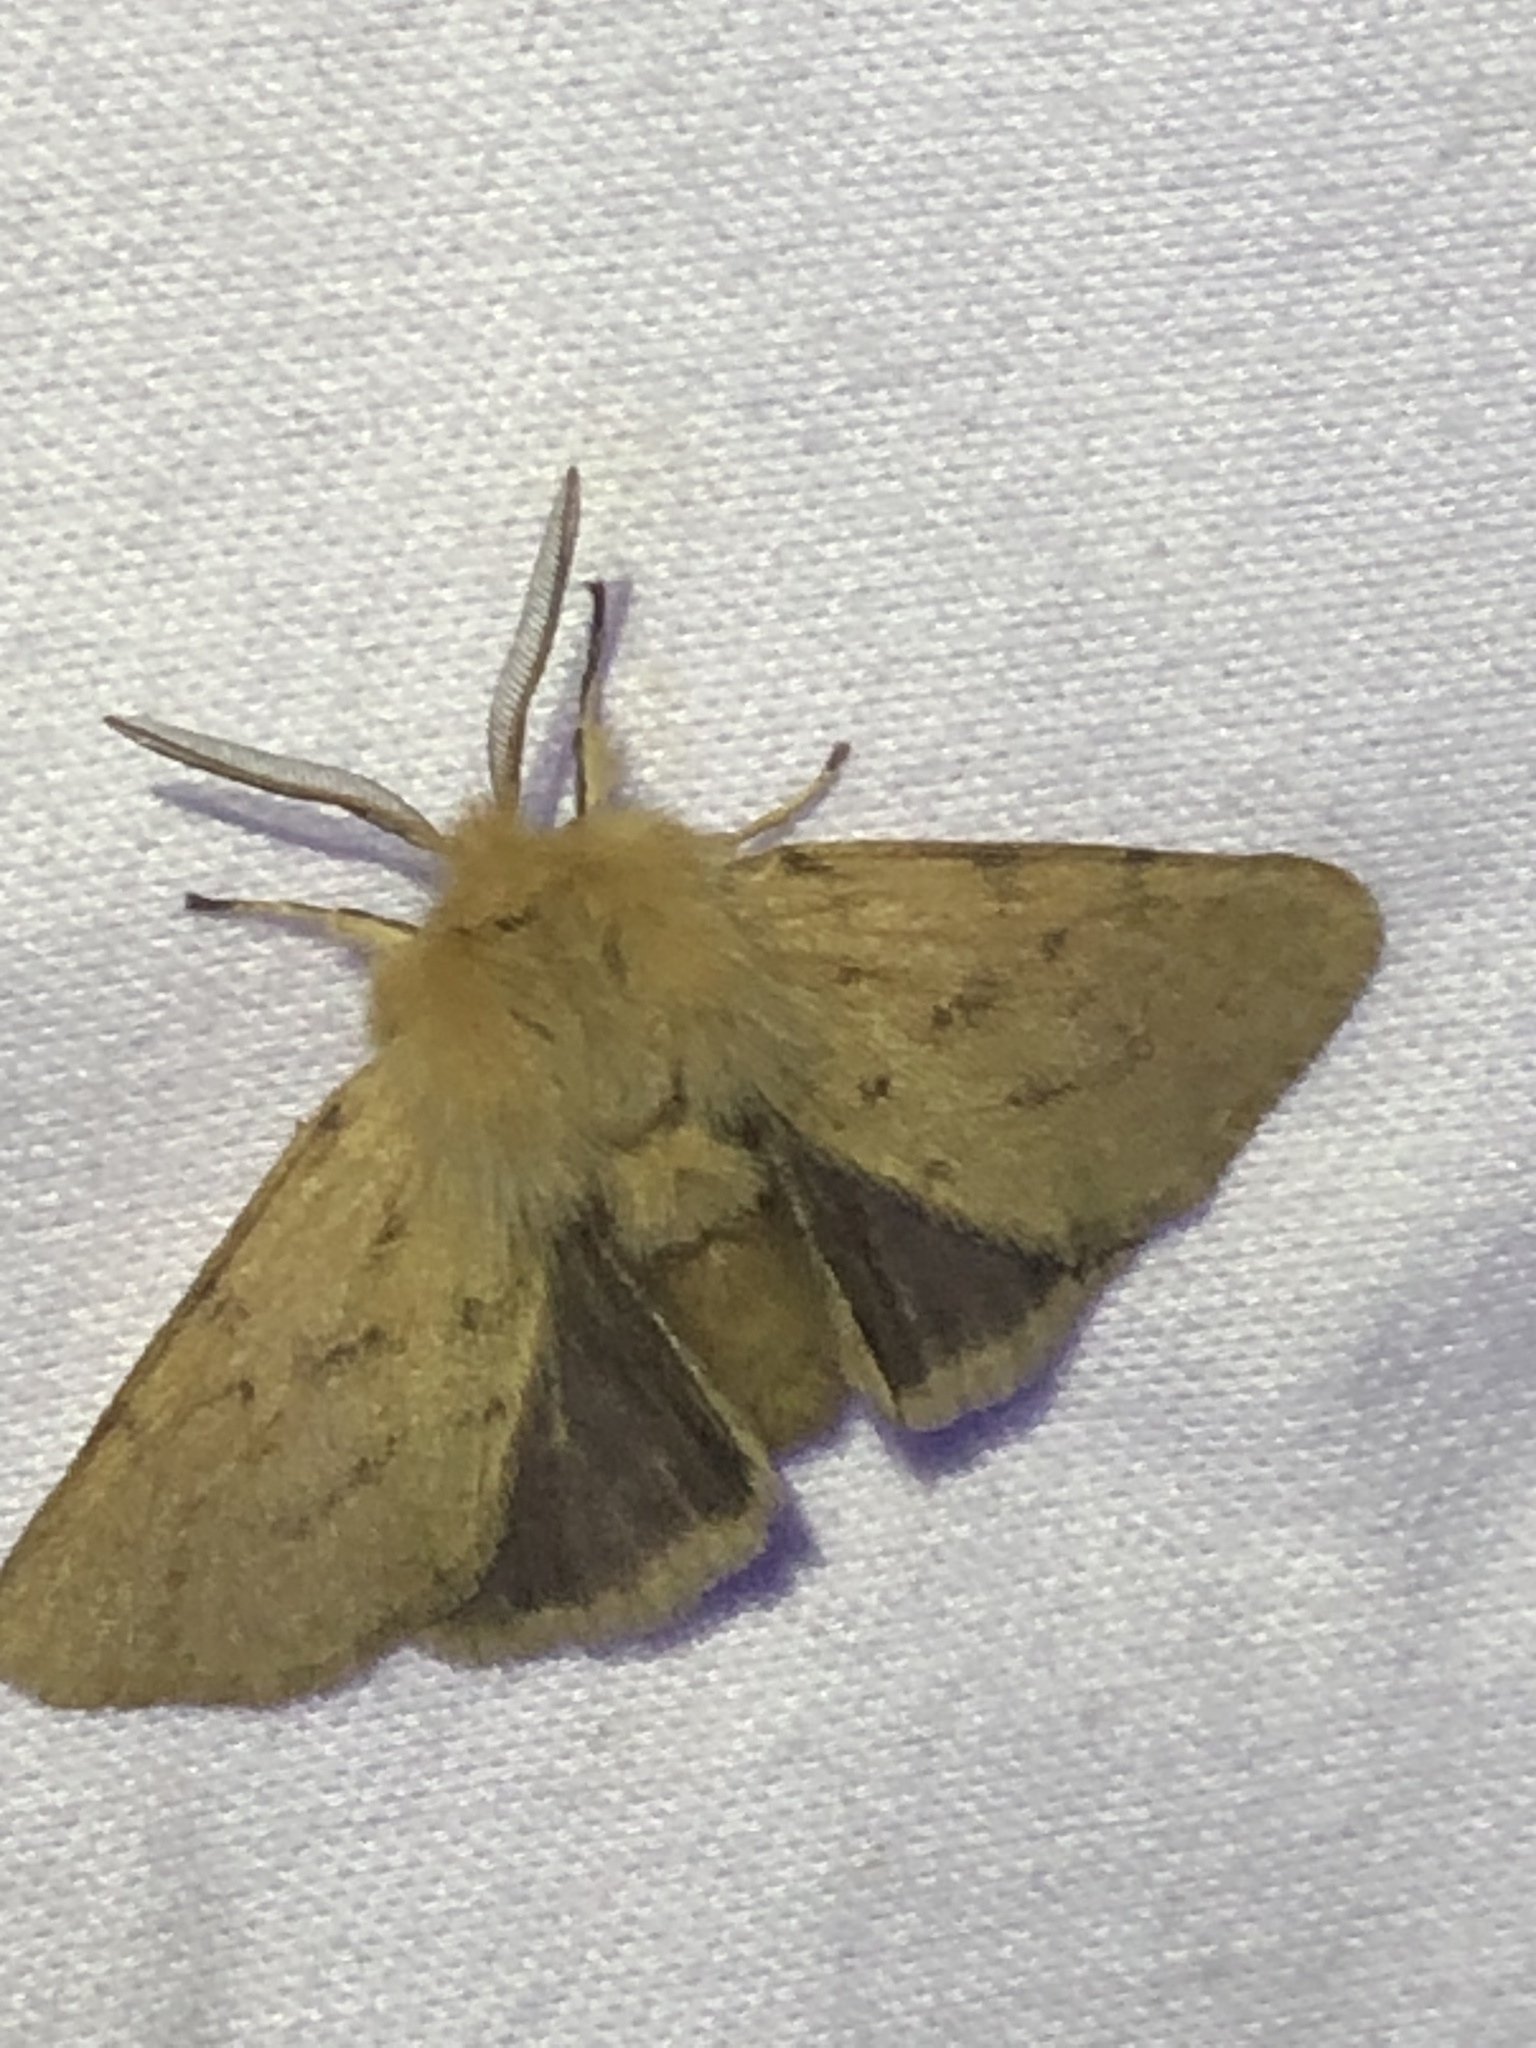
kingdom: Animalia
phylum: Arthropoda
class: Insecta
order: Lepidoptera
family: Erebidae
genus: Spilosoma
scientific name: Spilosoma vagans
